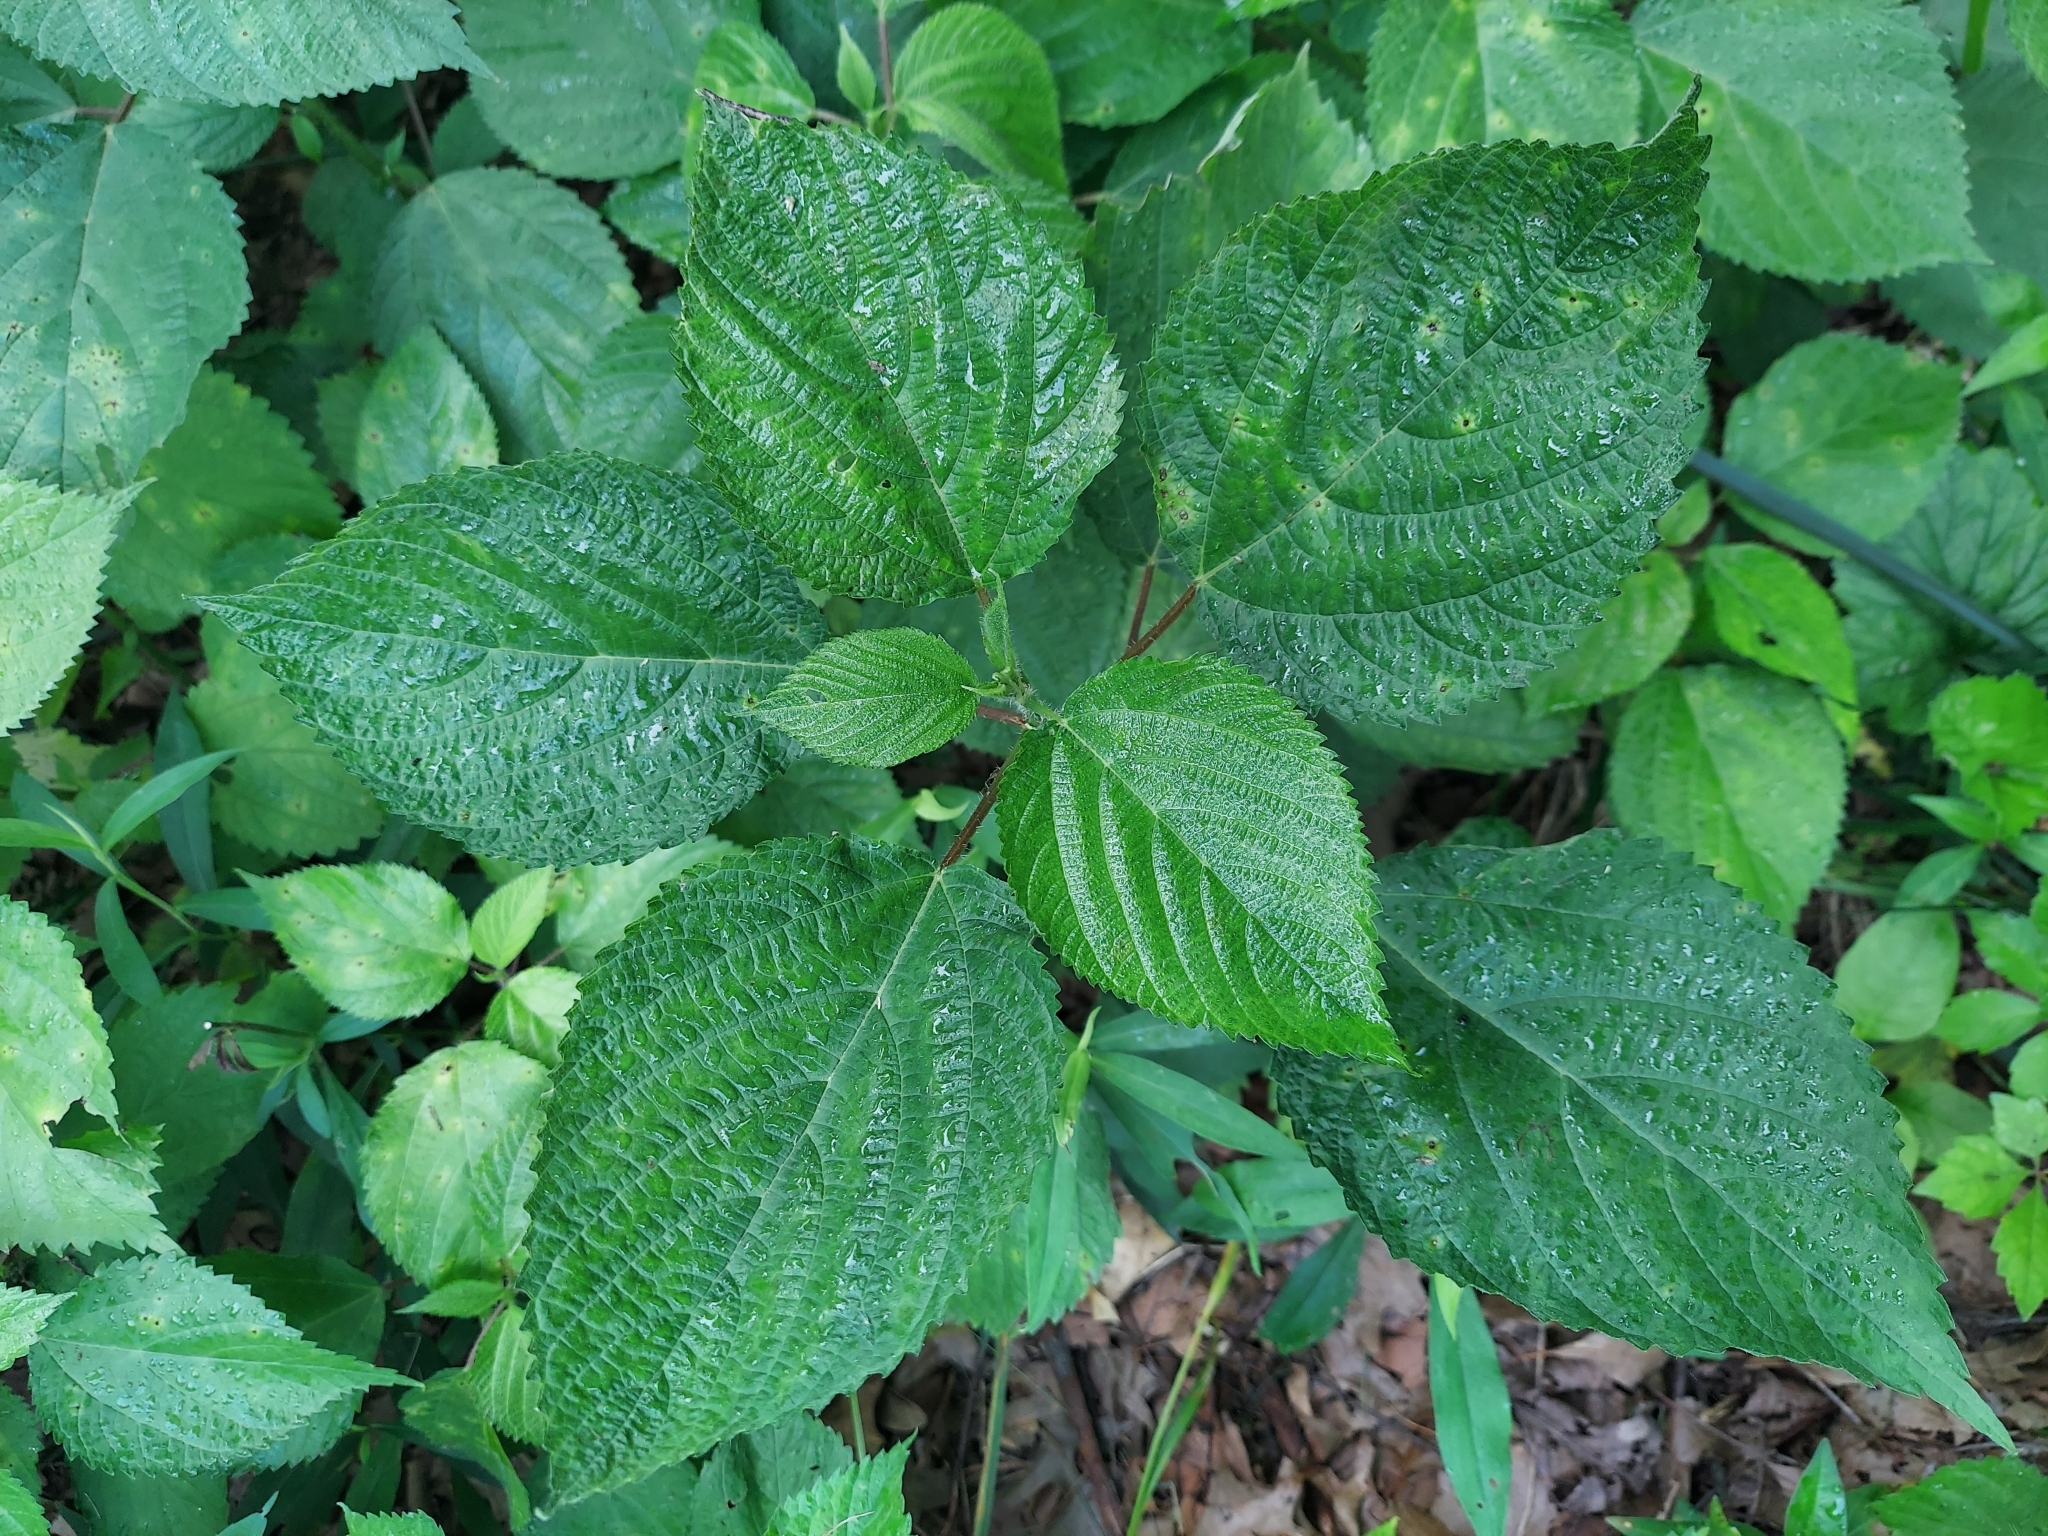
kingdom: Plantae
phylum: Tracheophyta
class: Magnoliopsida
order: Rosales
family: Urticaceae
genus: Laportea
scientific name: Laportea canadensis
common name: Canada nettle
